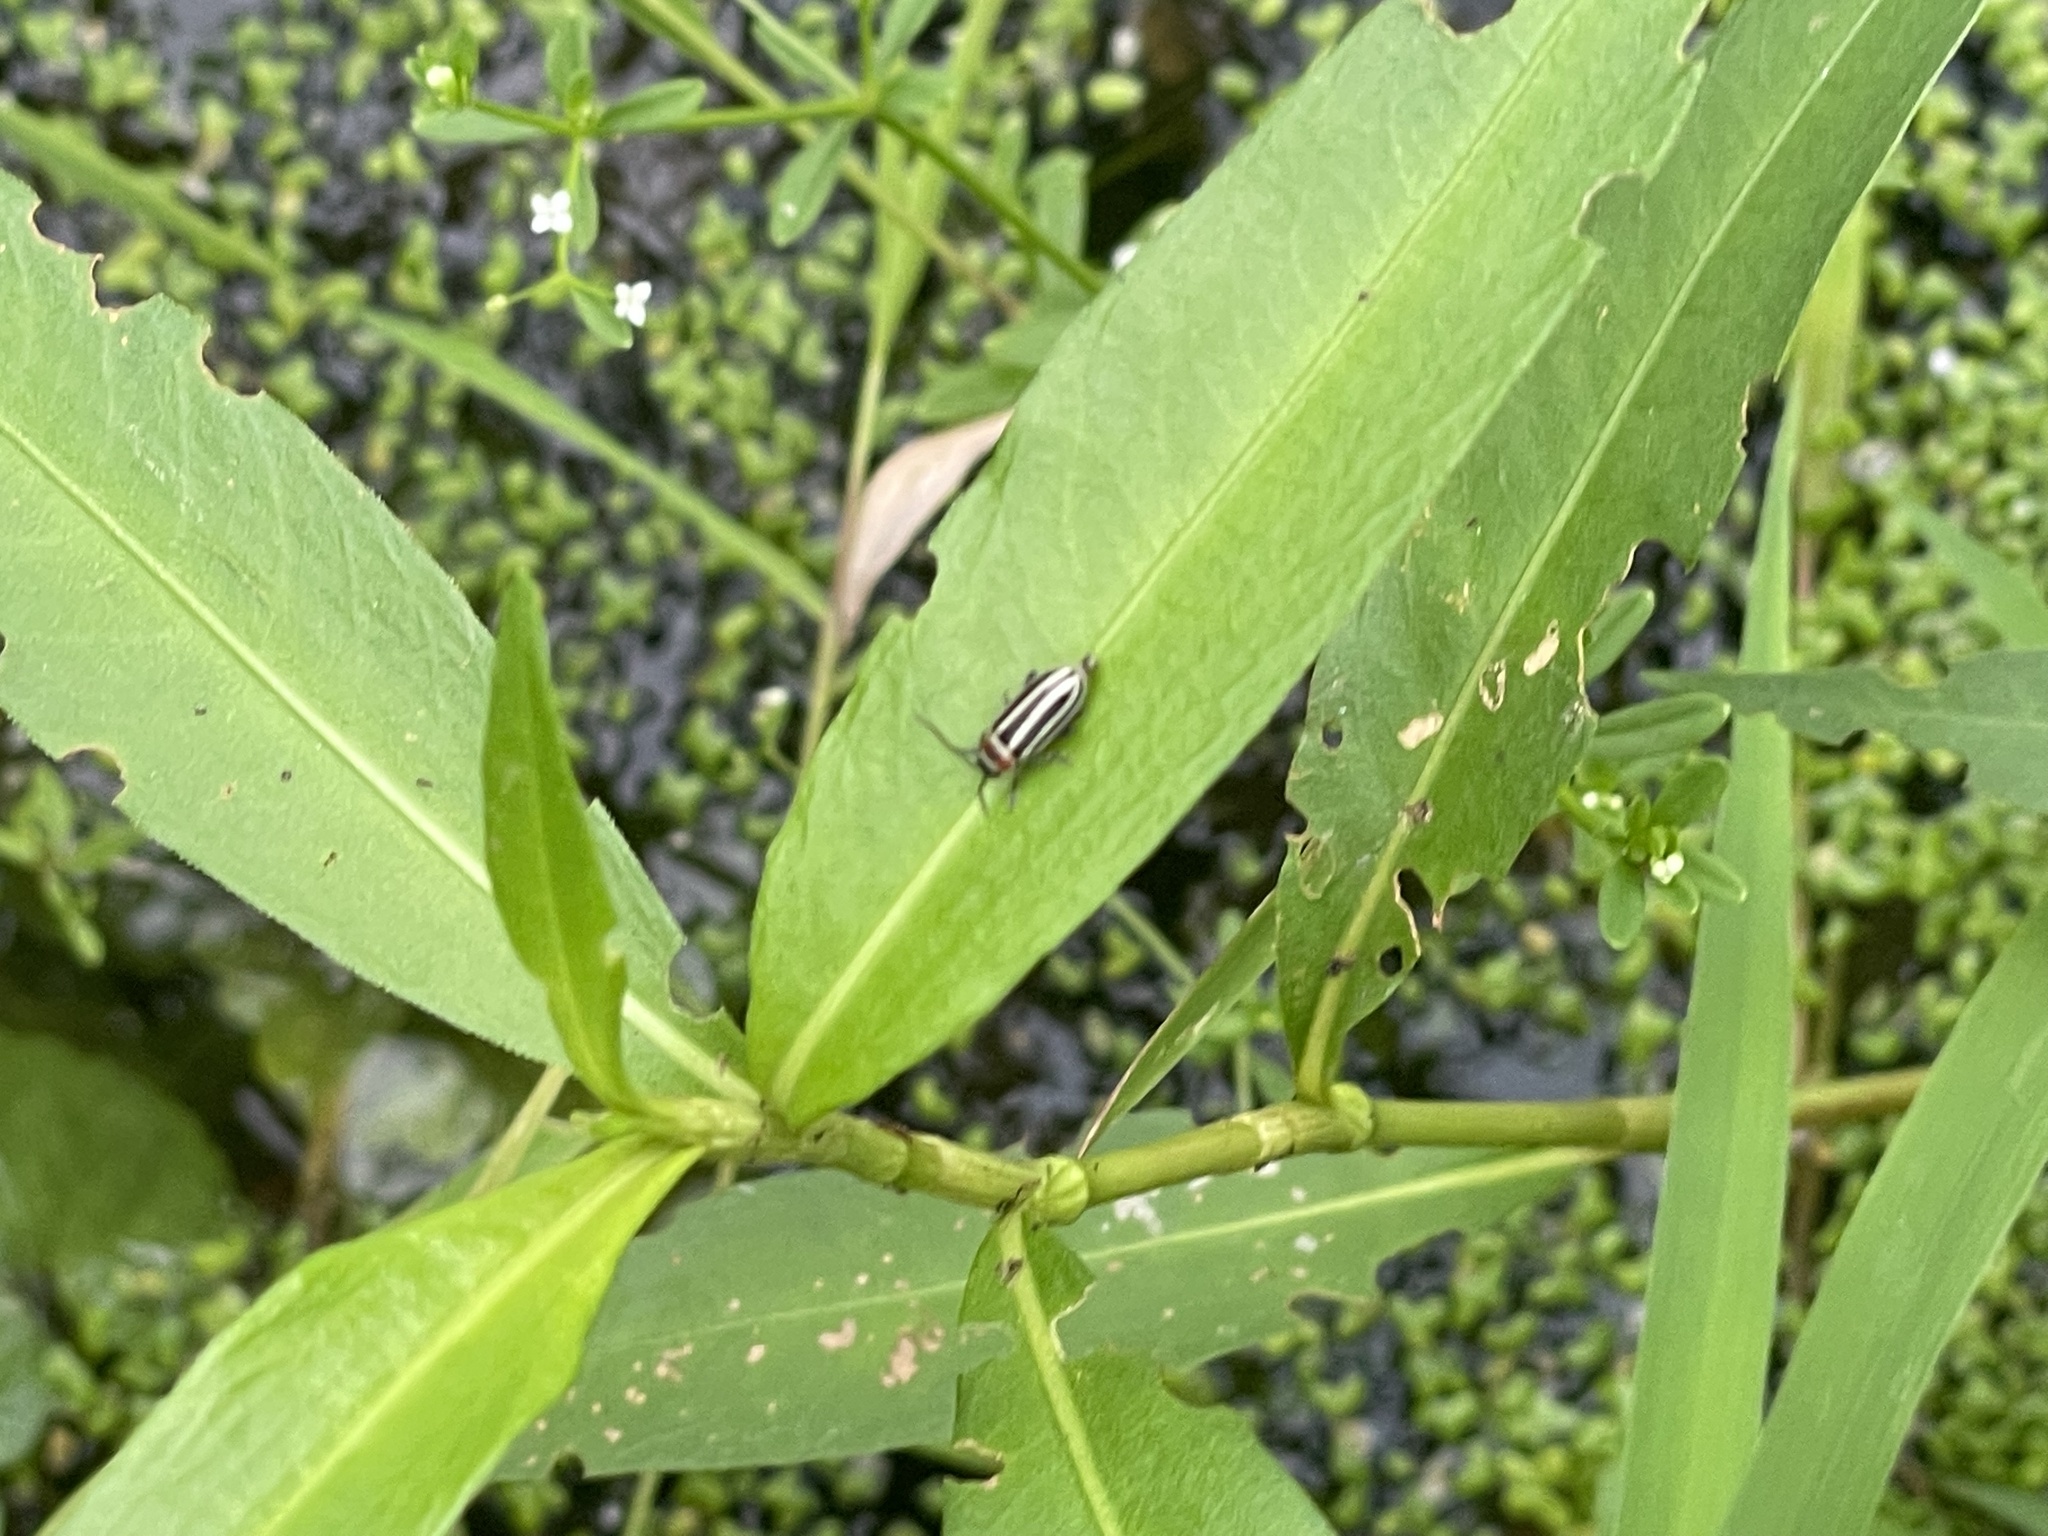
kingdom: Animalia
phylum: Arthropoda
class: Insecta
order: Coleoptera
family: Chrysomelidae
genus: Disonycha
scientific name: Disonycha pensylvanica
